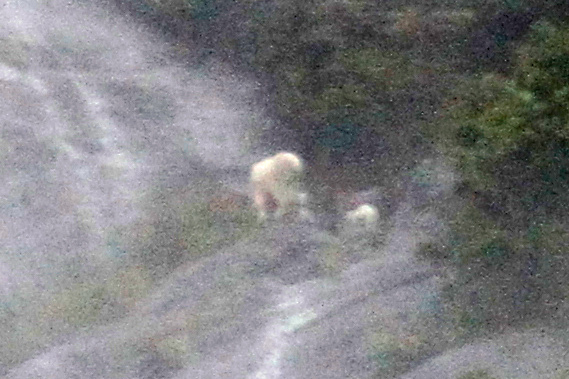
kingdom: Animalia
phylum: Chordata
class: Mammalia
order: Artiodactyla
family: Bovidae
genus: Oreamnos
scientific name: Oreamnos americanus
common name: Mountain goat
